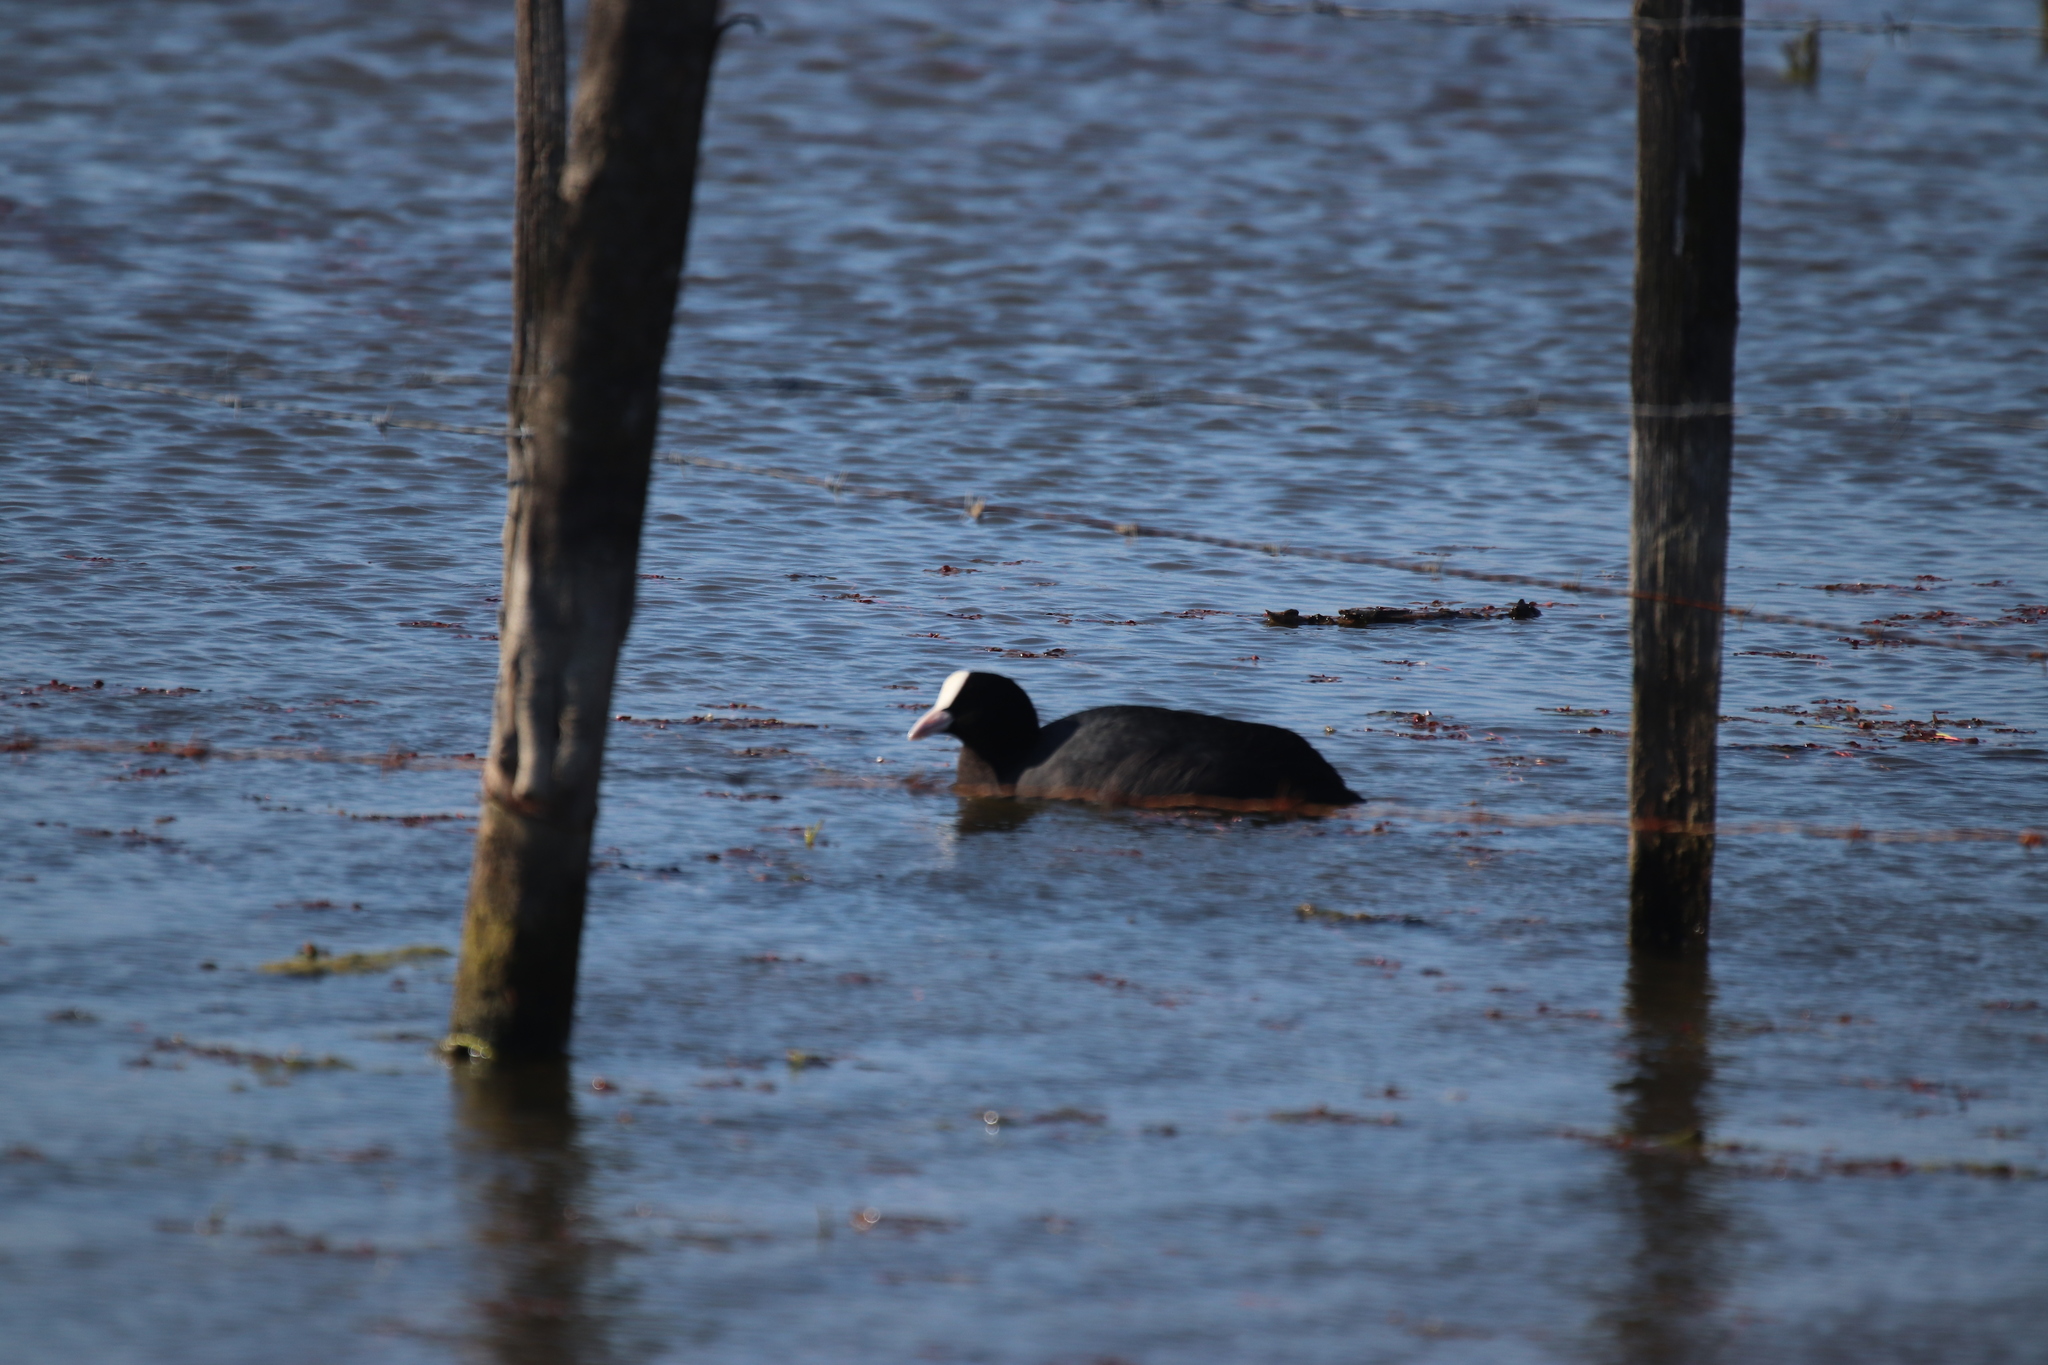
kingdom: Animalia
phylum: Chordata
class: Aves
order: Gruiformes
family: Rallidae
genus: Fulica
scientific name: Fulica atra
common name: Eurasian coot
